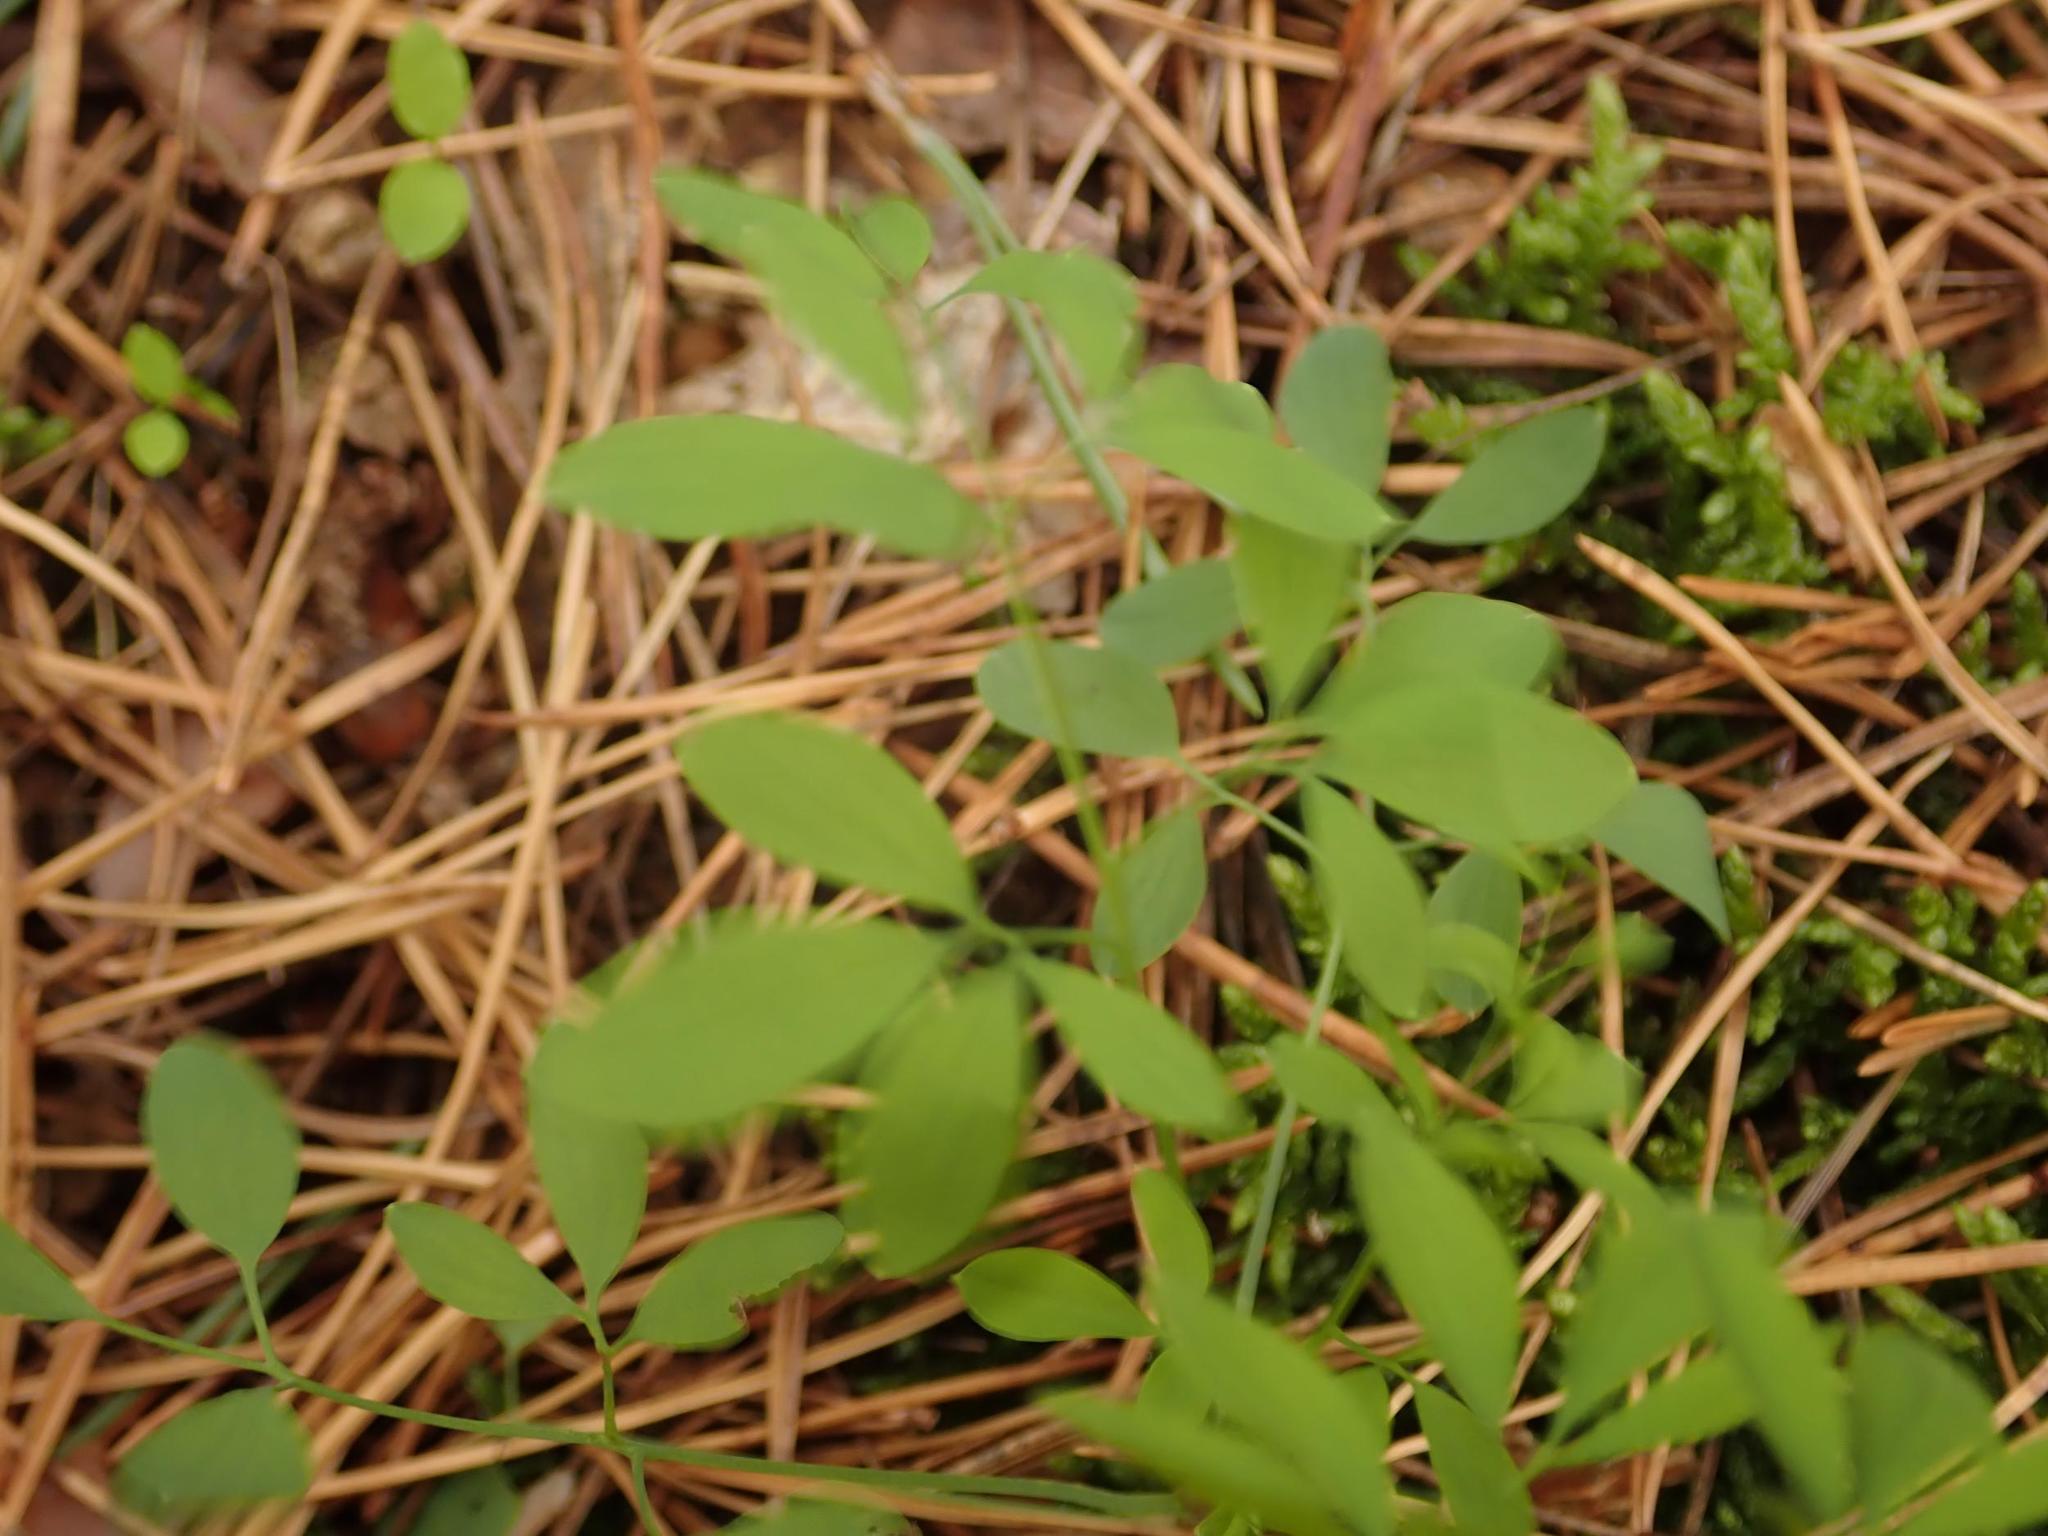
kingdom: Plantae
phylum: Tracheophyta
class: Magnoliopsida
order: Ranunculales
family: Papaveraceae
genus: Ceratocapnos
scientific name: Ceratocapnos claviculata
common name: Climbing corydalis
